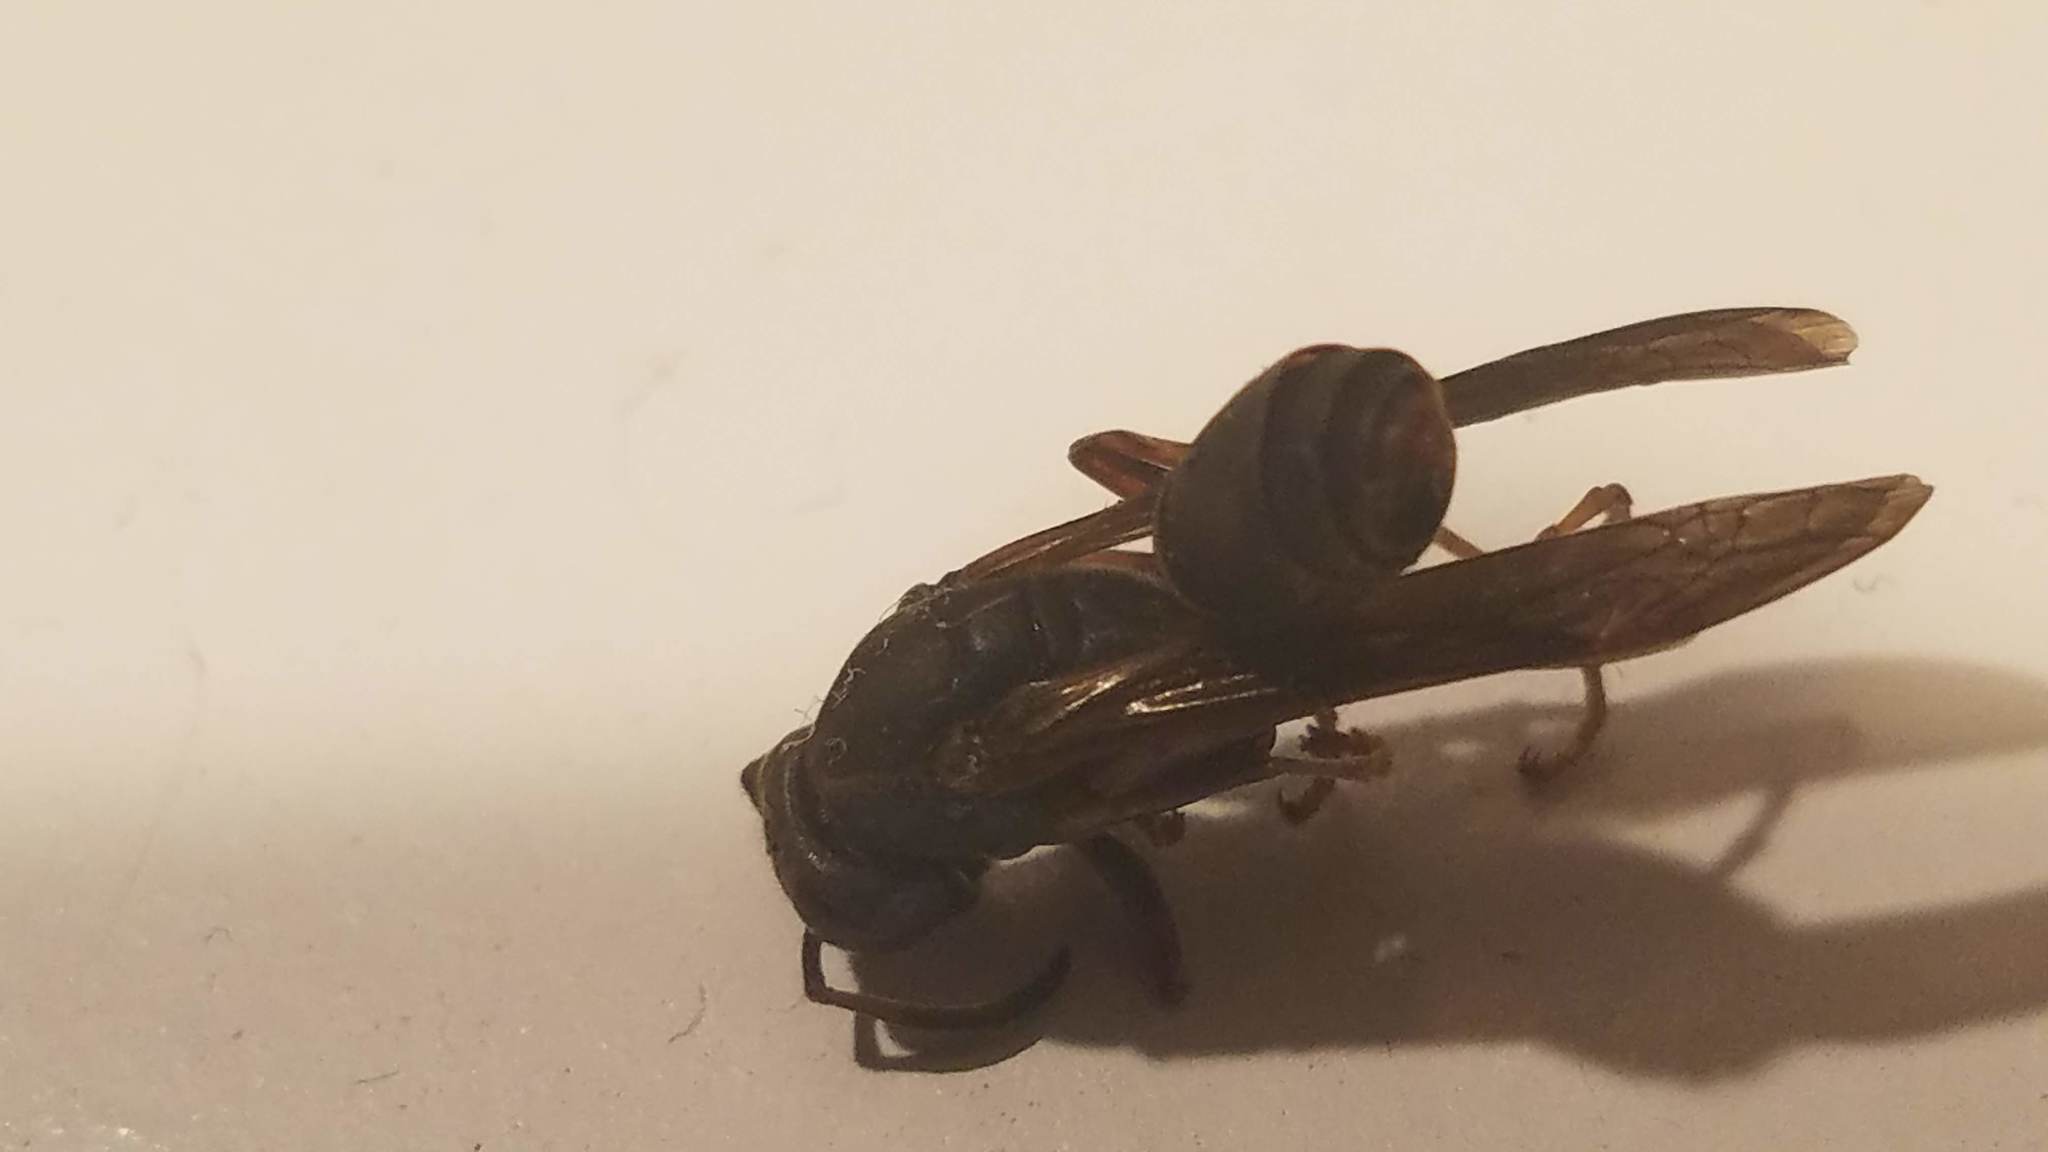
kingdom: Animalia
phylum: Arthropoda
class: Insecta
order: Hymenoptera
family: Vespidae
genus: Fuscopolistes
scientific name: Fuscopolistes
